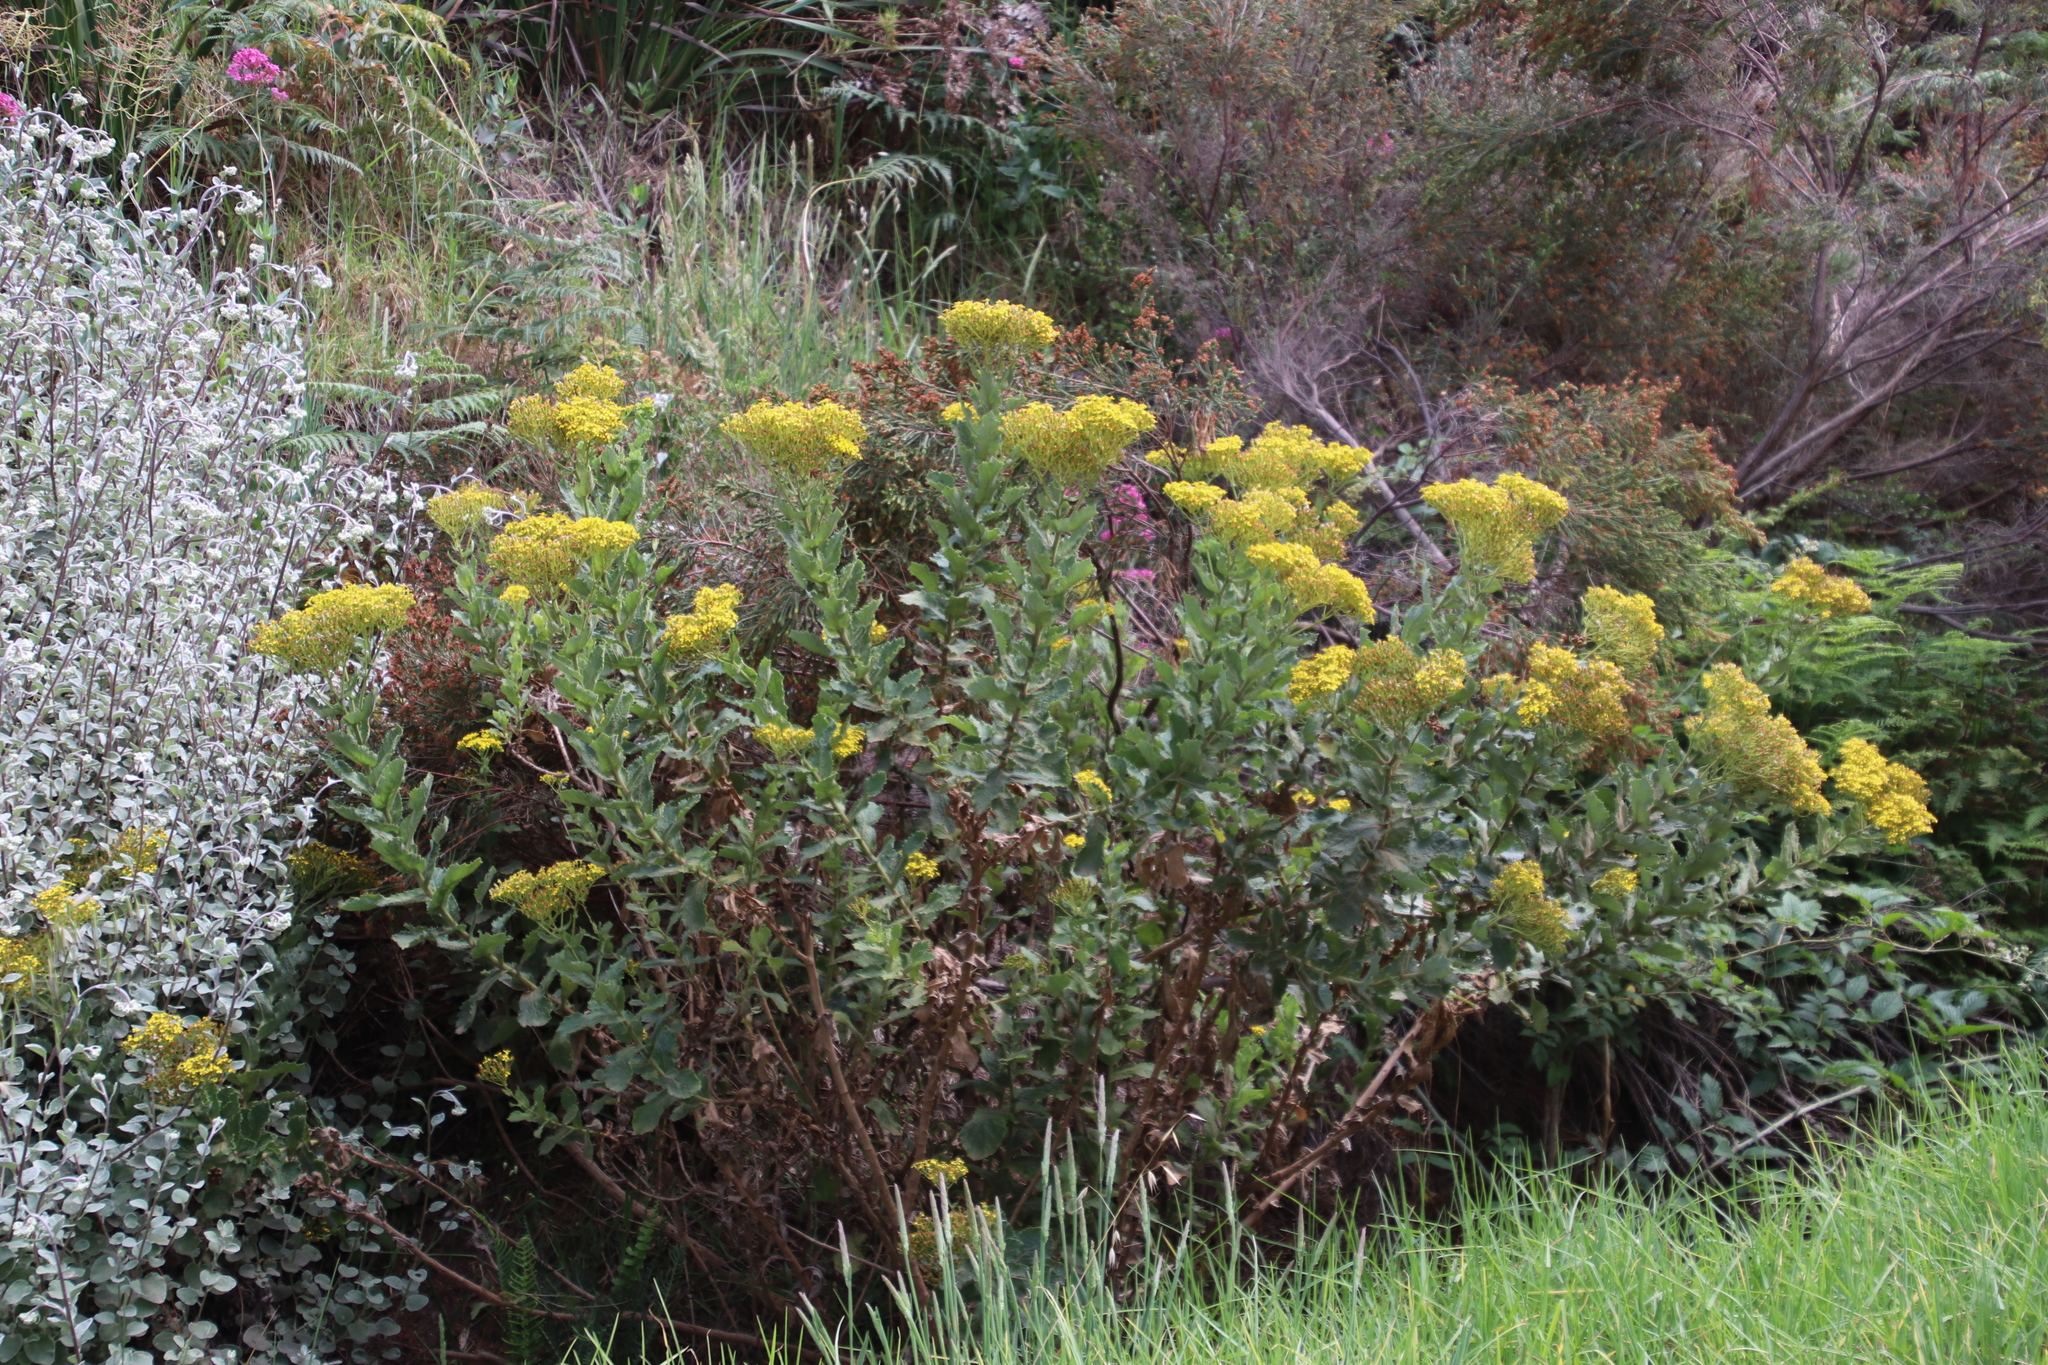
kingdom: Plantae
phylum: Tracheophyta
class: Magnoliopsida
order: Asterales
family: Asteraceae
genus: Senecio
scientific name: Senecio rigidus
